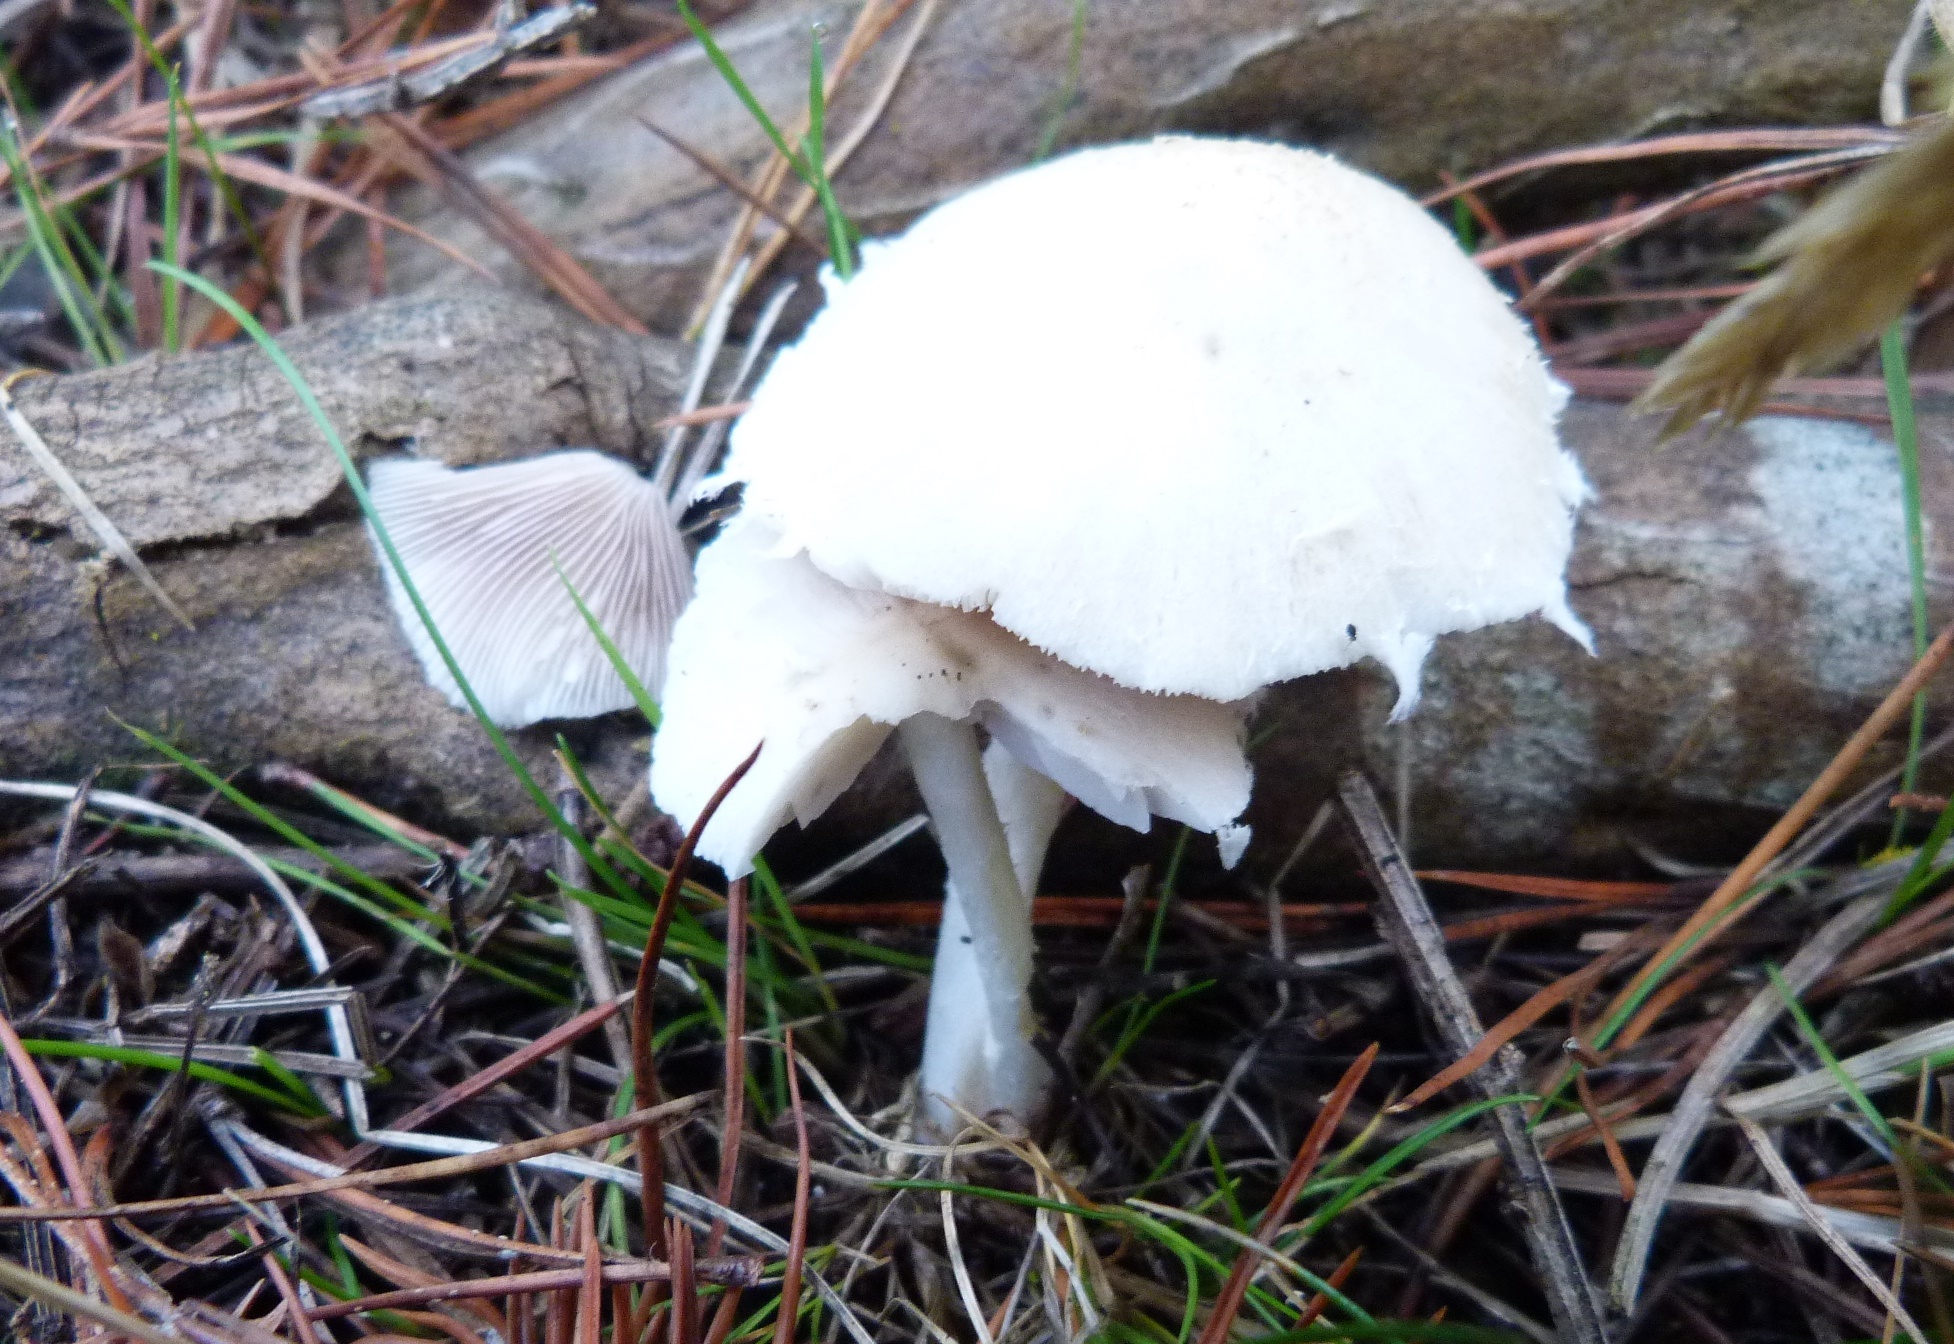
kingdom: Fungi
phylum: Basidiomycota
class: Agaricomycetes
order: Agaricales
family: Psathyrellaceae
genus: Candolleomyces
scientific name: Candolleomyces candolleanus
